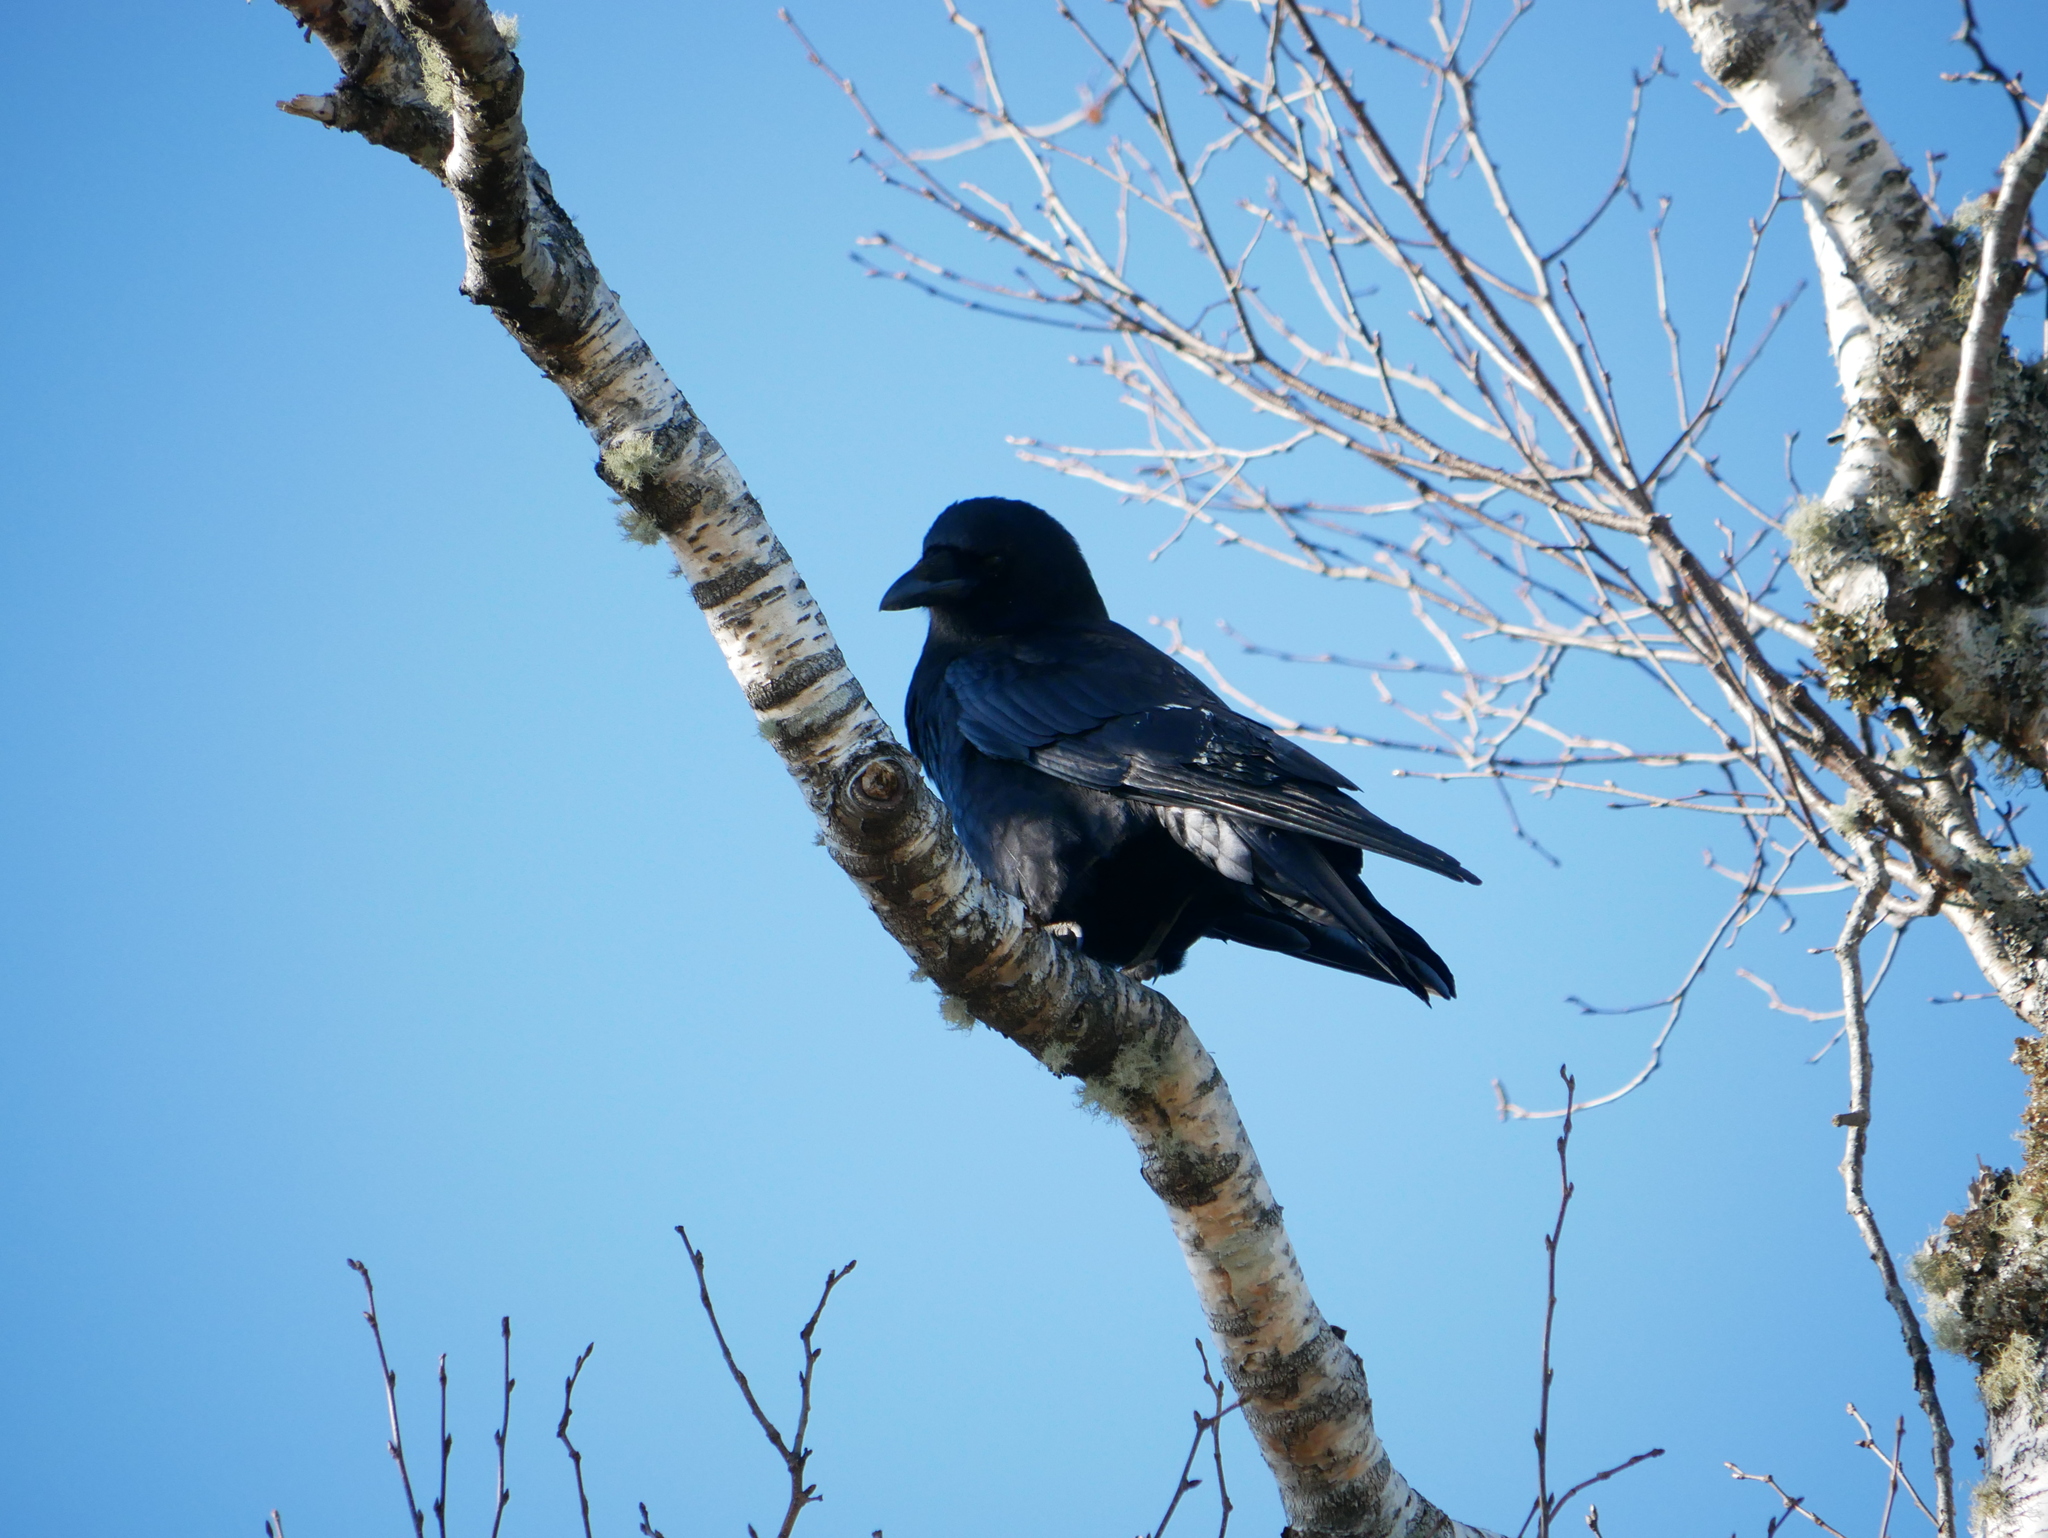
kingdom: Animalia
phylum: Chordata
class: Aves
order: Passeriformes
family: Corvidae
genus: Corvus
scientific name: Corvus brachyrhynchos
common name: American crow
